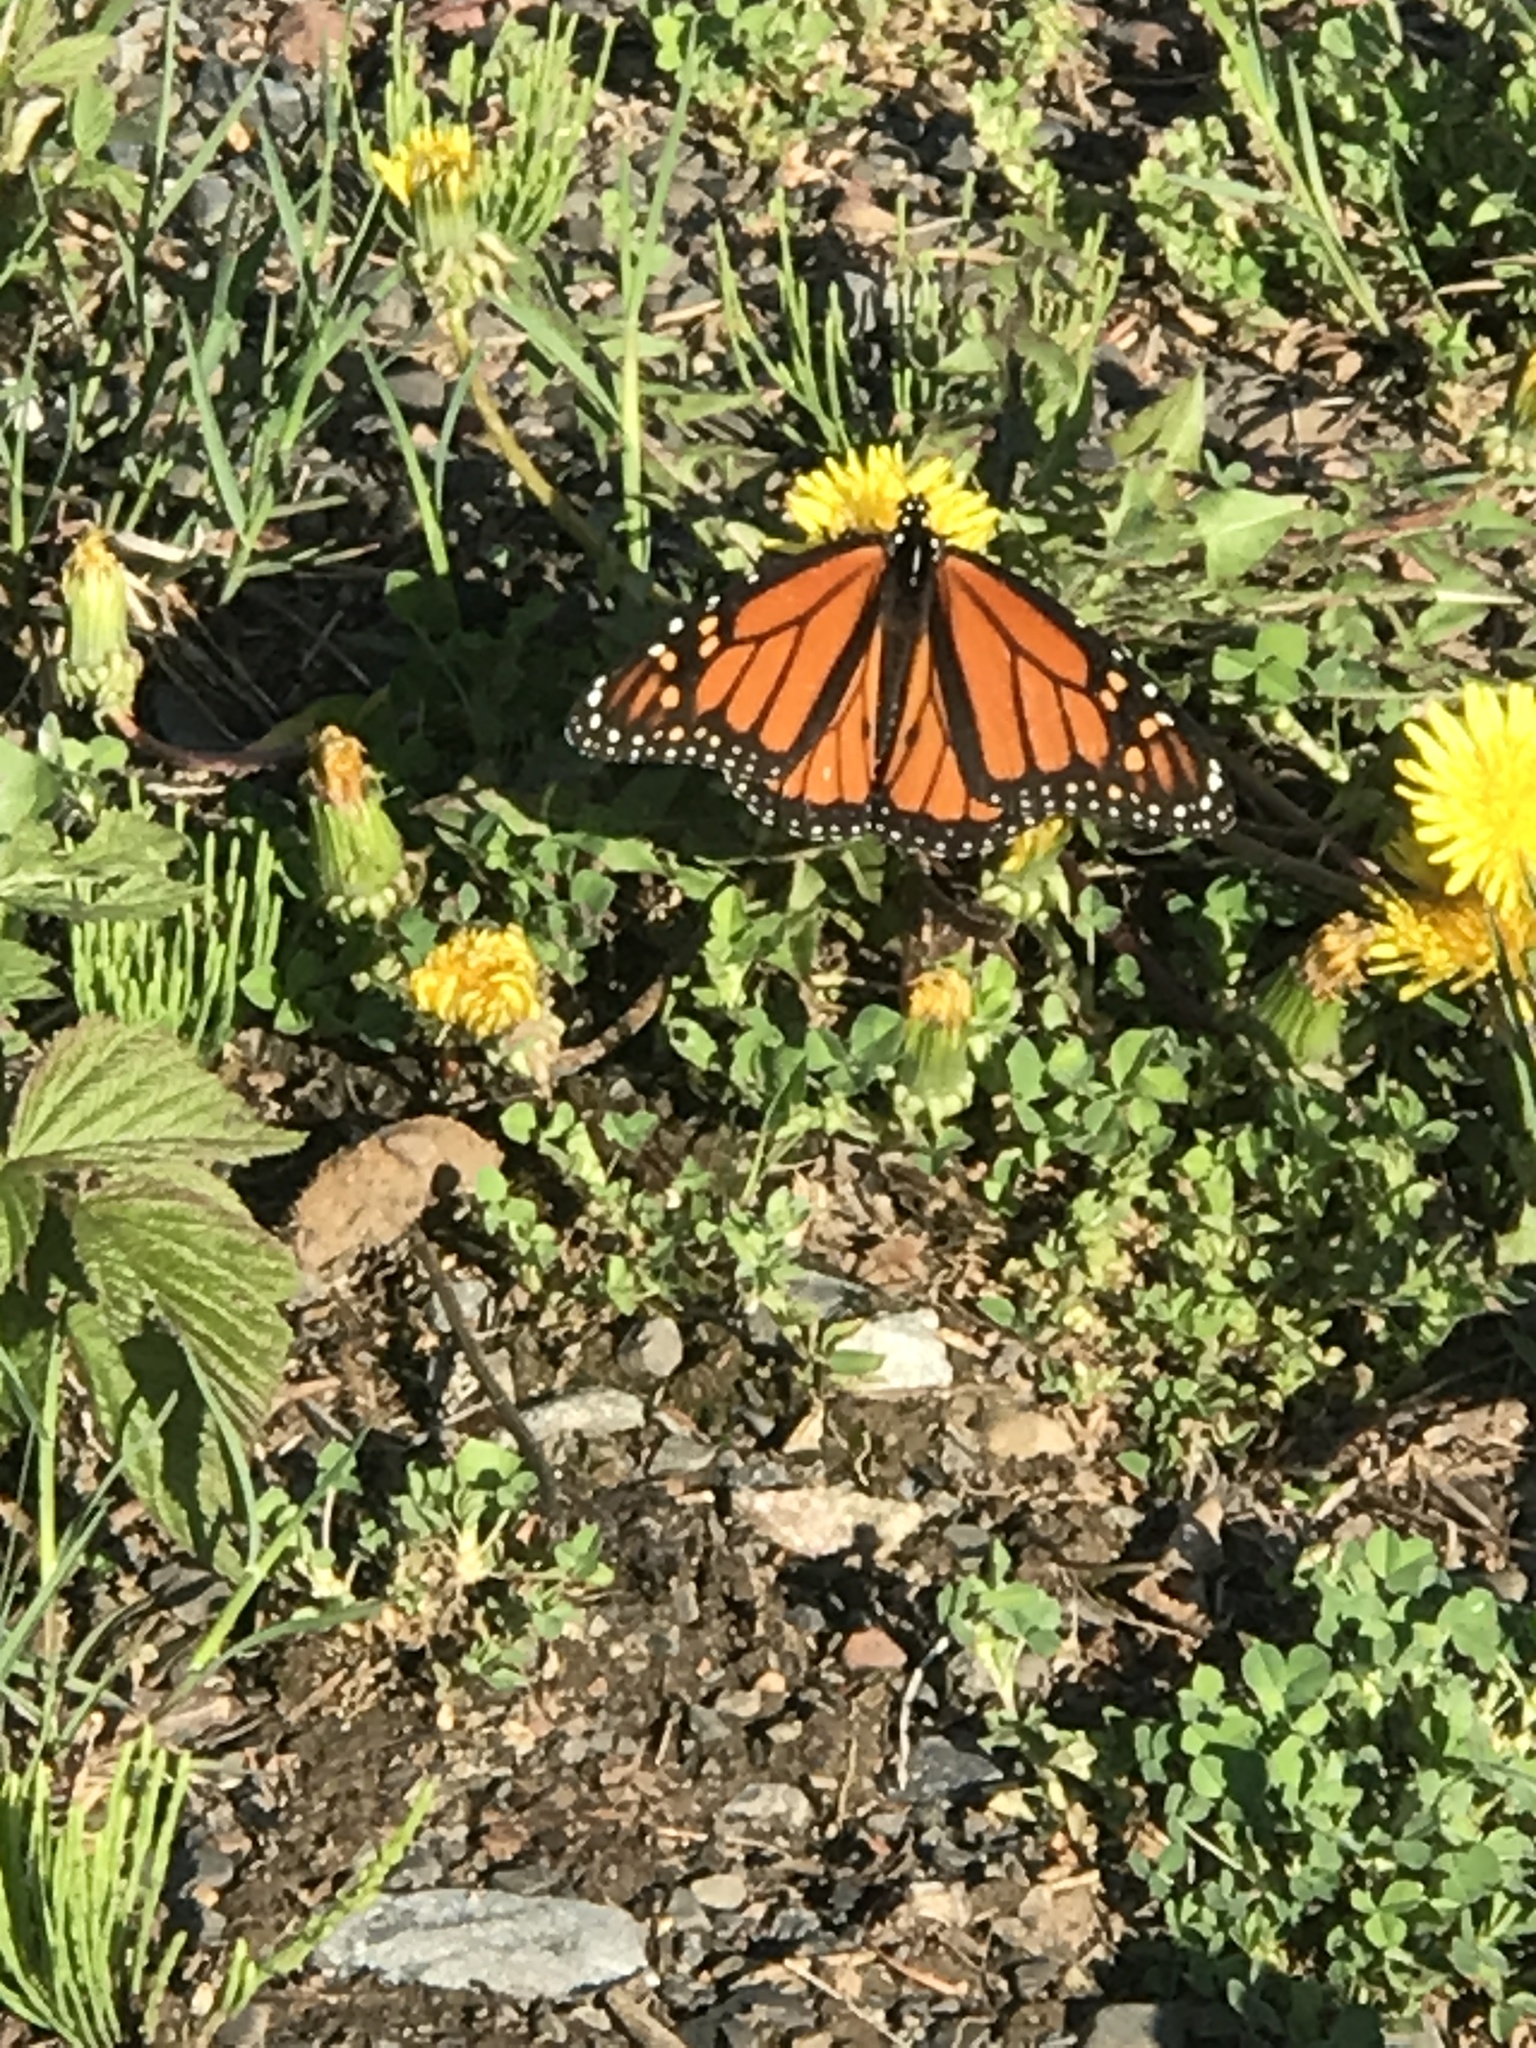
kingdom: Animalia
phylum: Arthropoda
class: Insecta
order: Lepidoptera
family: Nymphalidae
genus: Danaus
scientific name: Danaus plexippus
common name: Monarch
